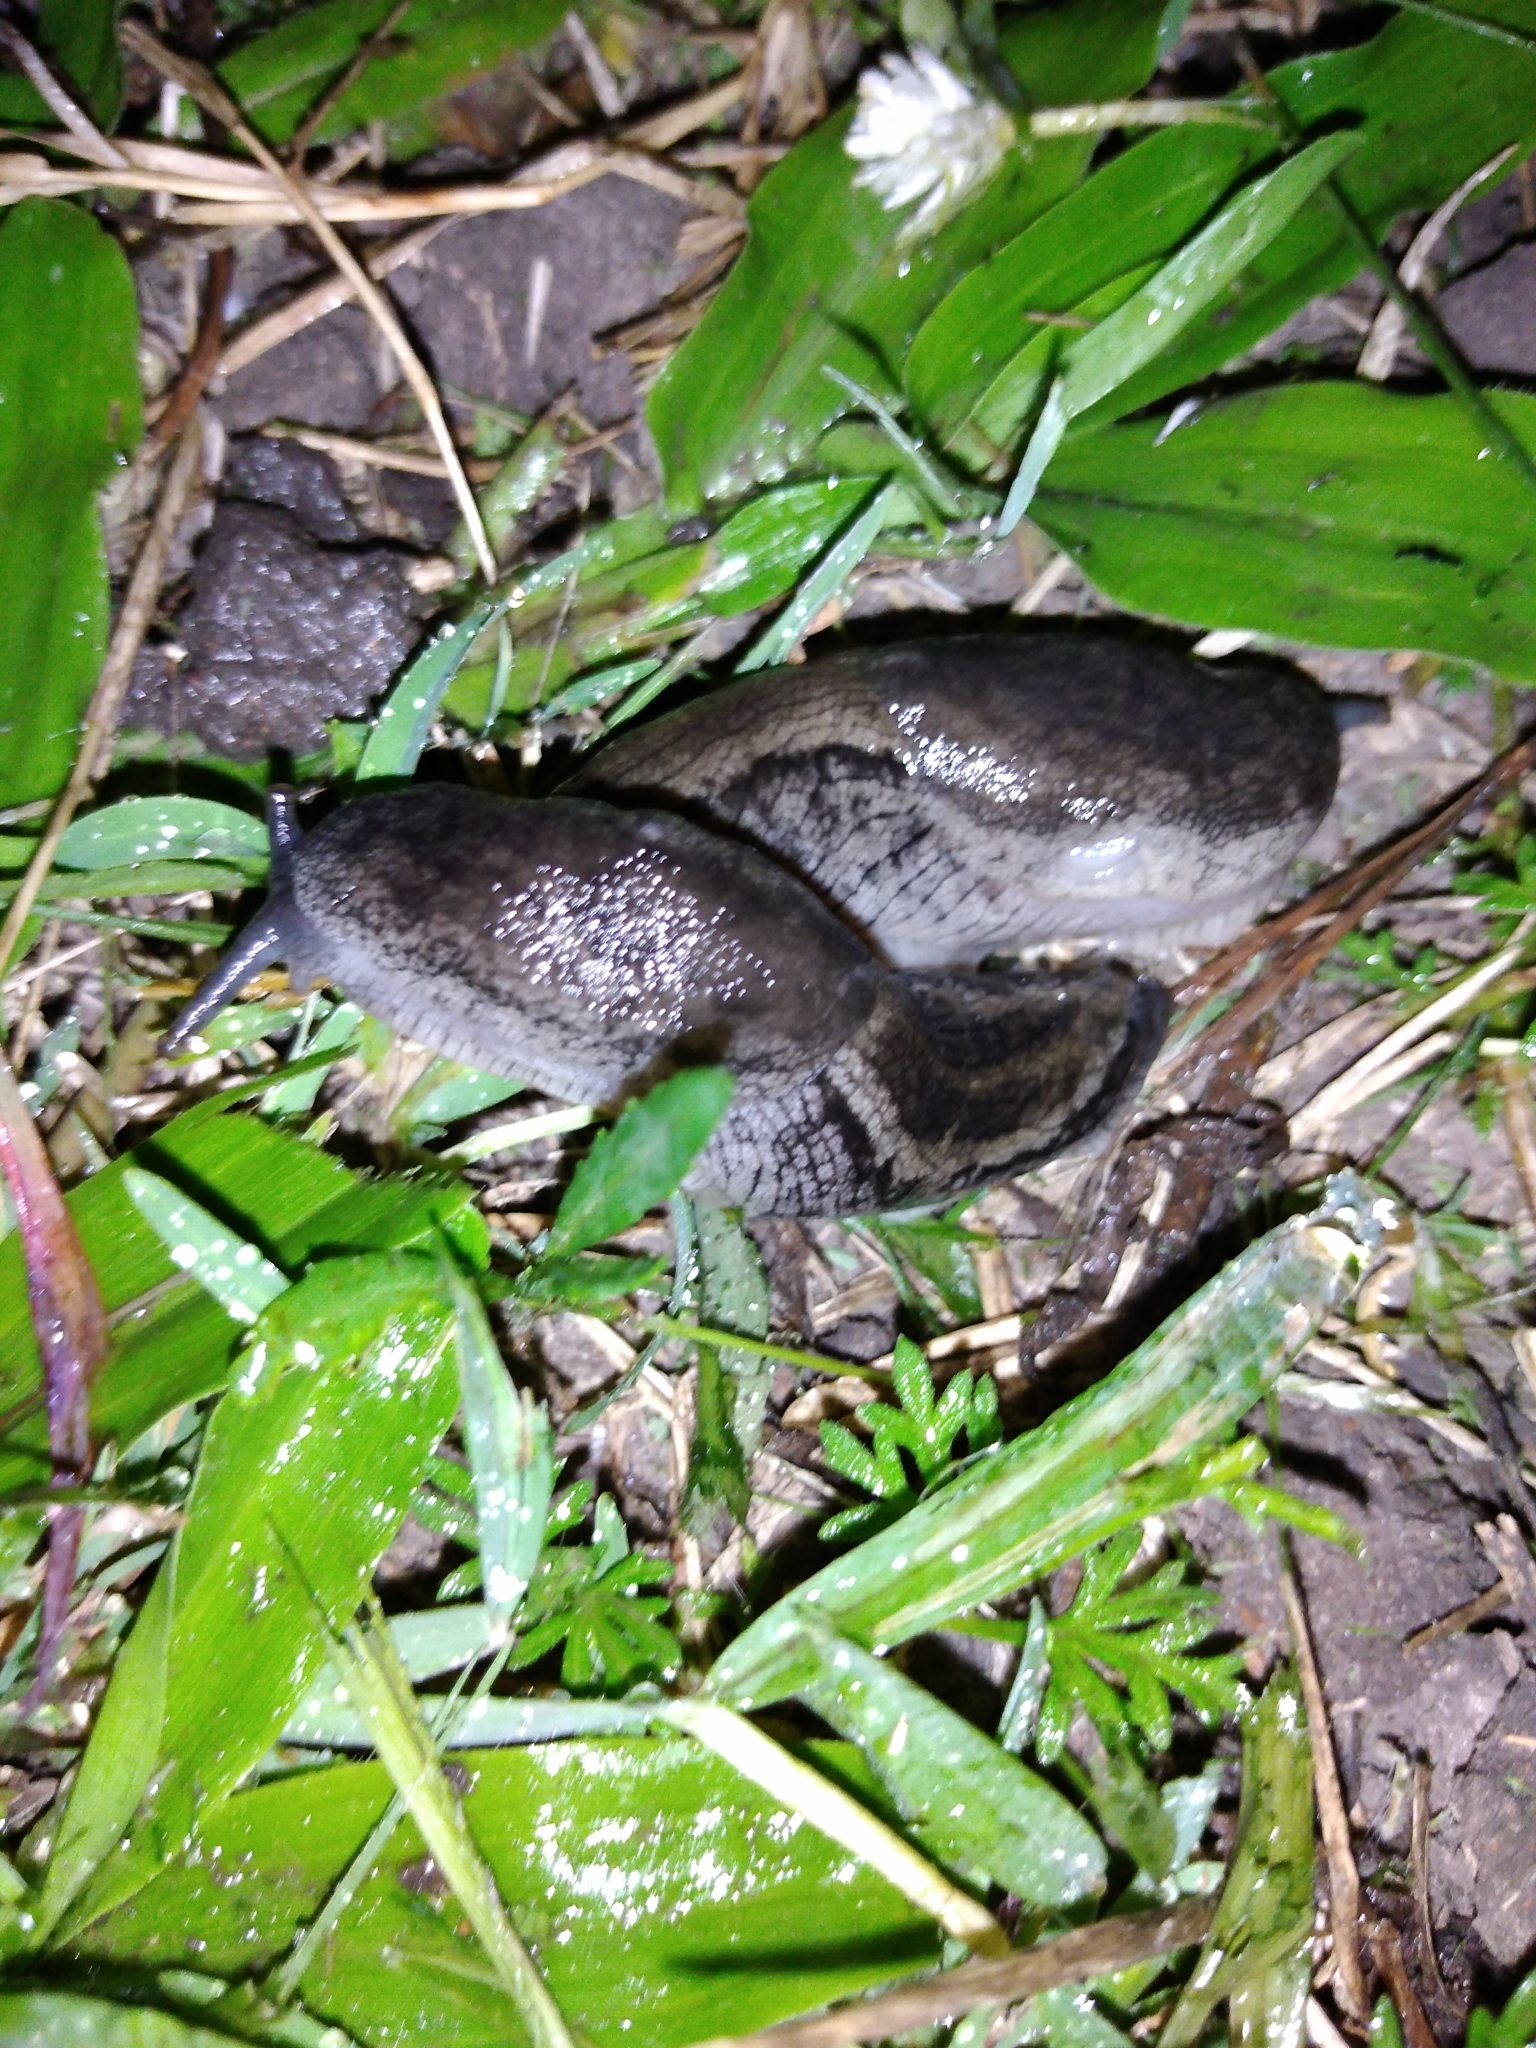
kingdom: Animalia
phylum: Mollusca
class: Gastropoda
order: Stylommatophora
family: Urocyclidae
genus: Urocyclus
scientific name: Urocyclus kirkii
